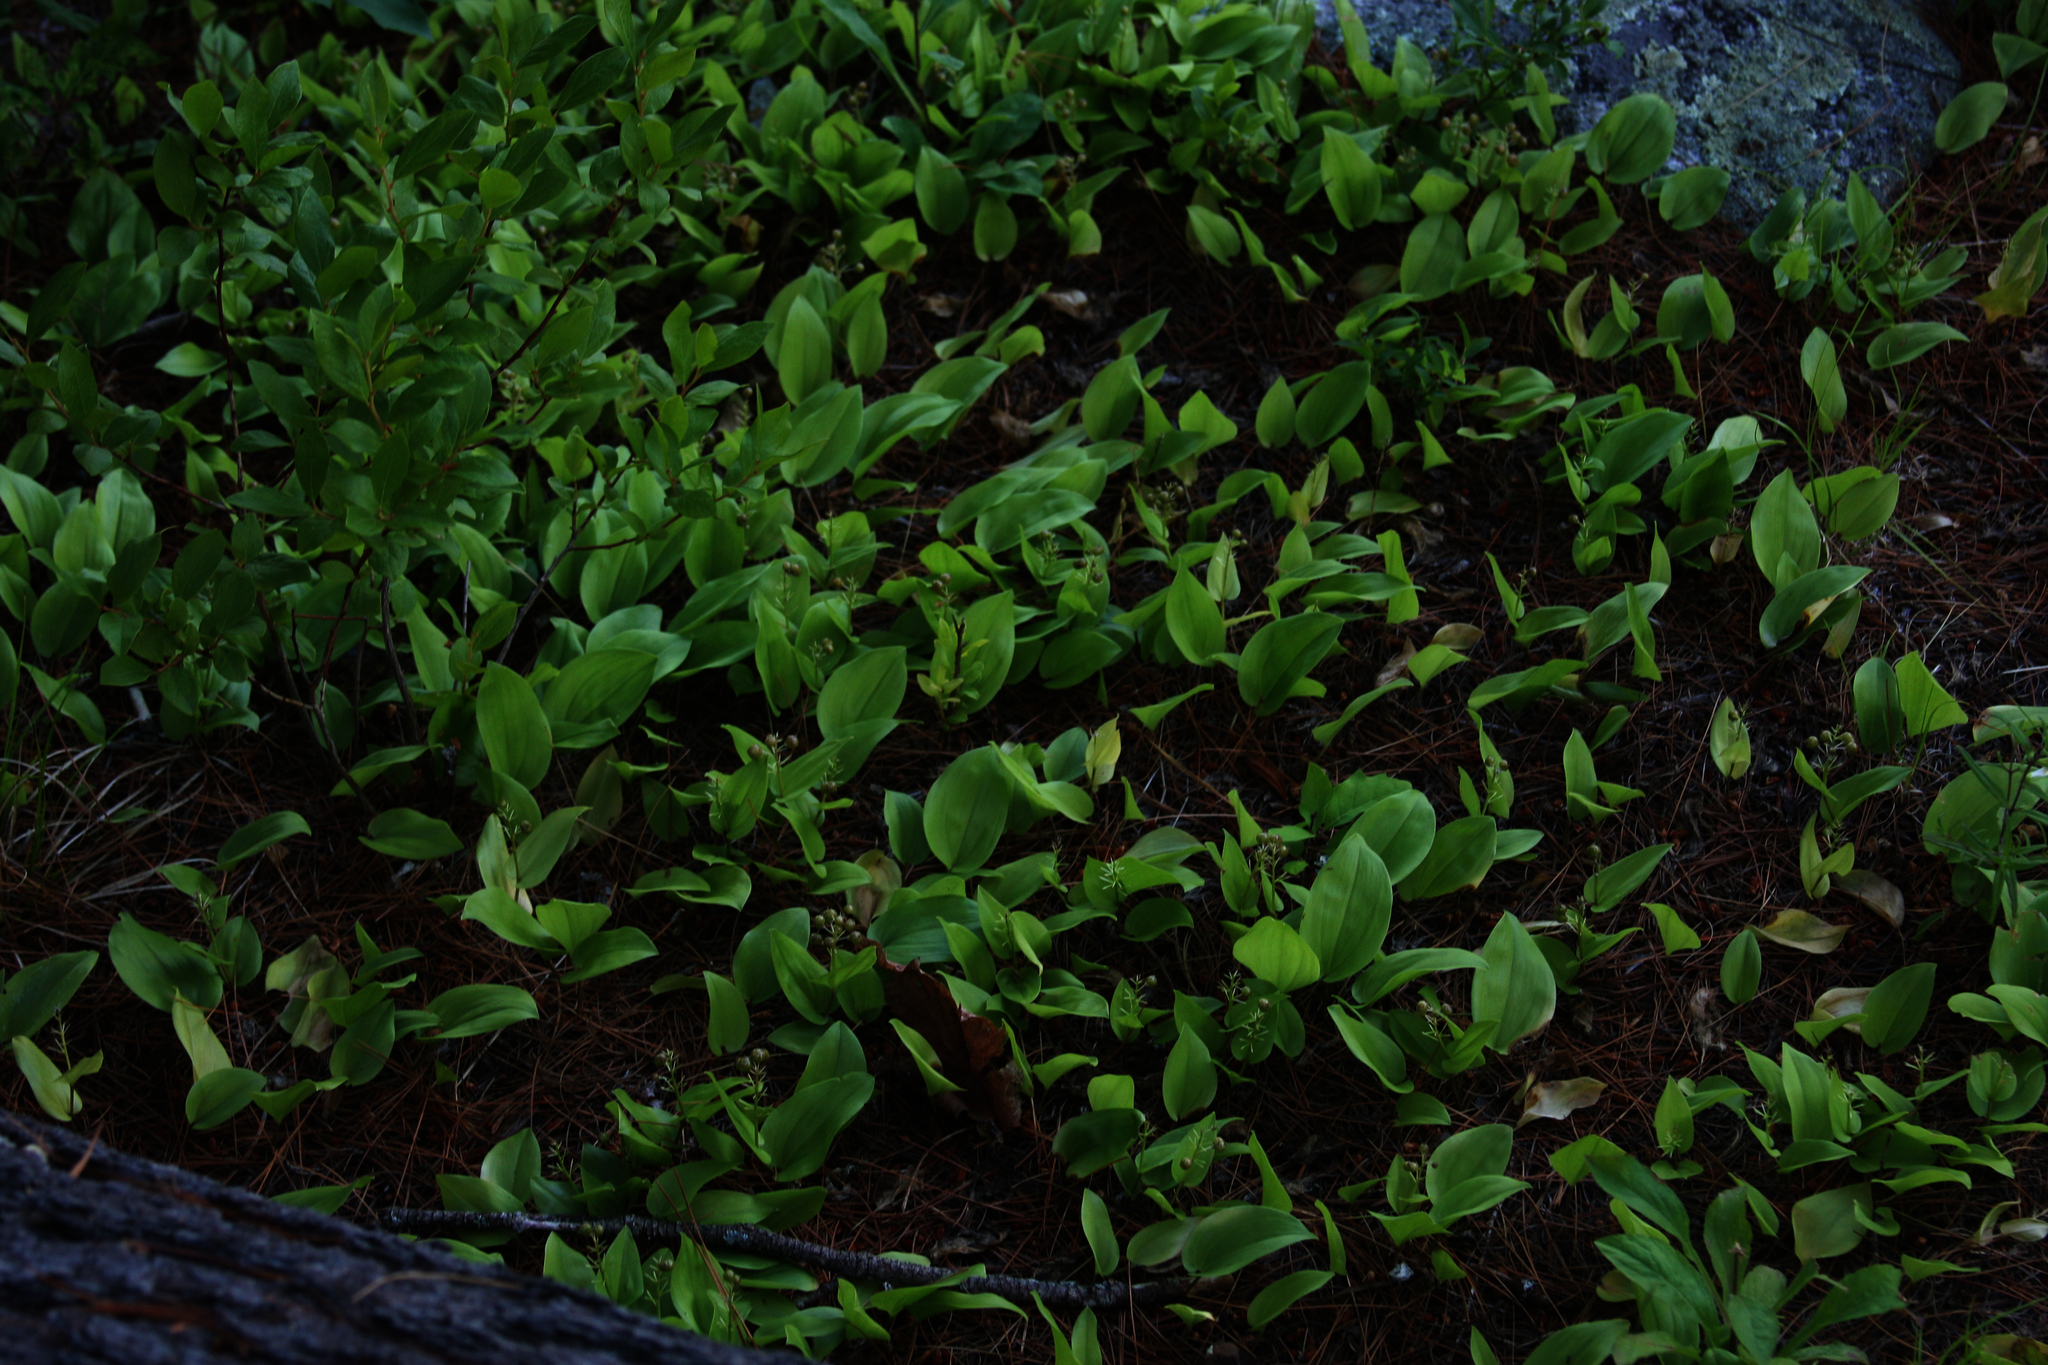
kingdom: Plantae
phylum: Tracheophyta
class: Liliopsida
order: Asparagales
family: Asparagaceae
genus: Maianthemum
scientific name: Maianthemum canadense
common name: False lily-of-the-valley
